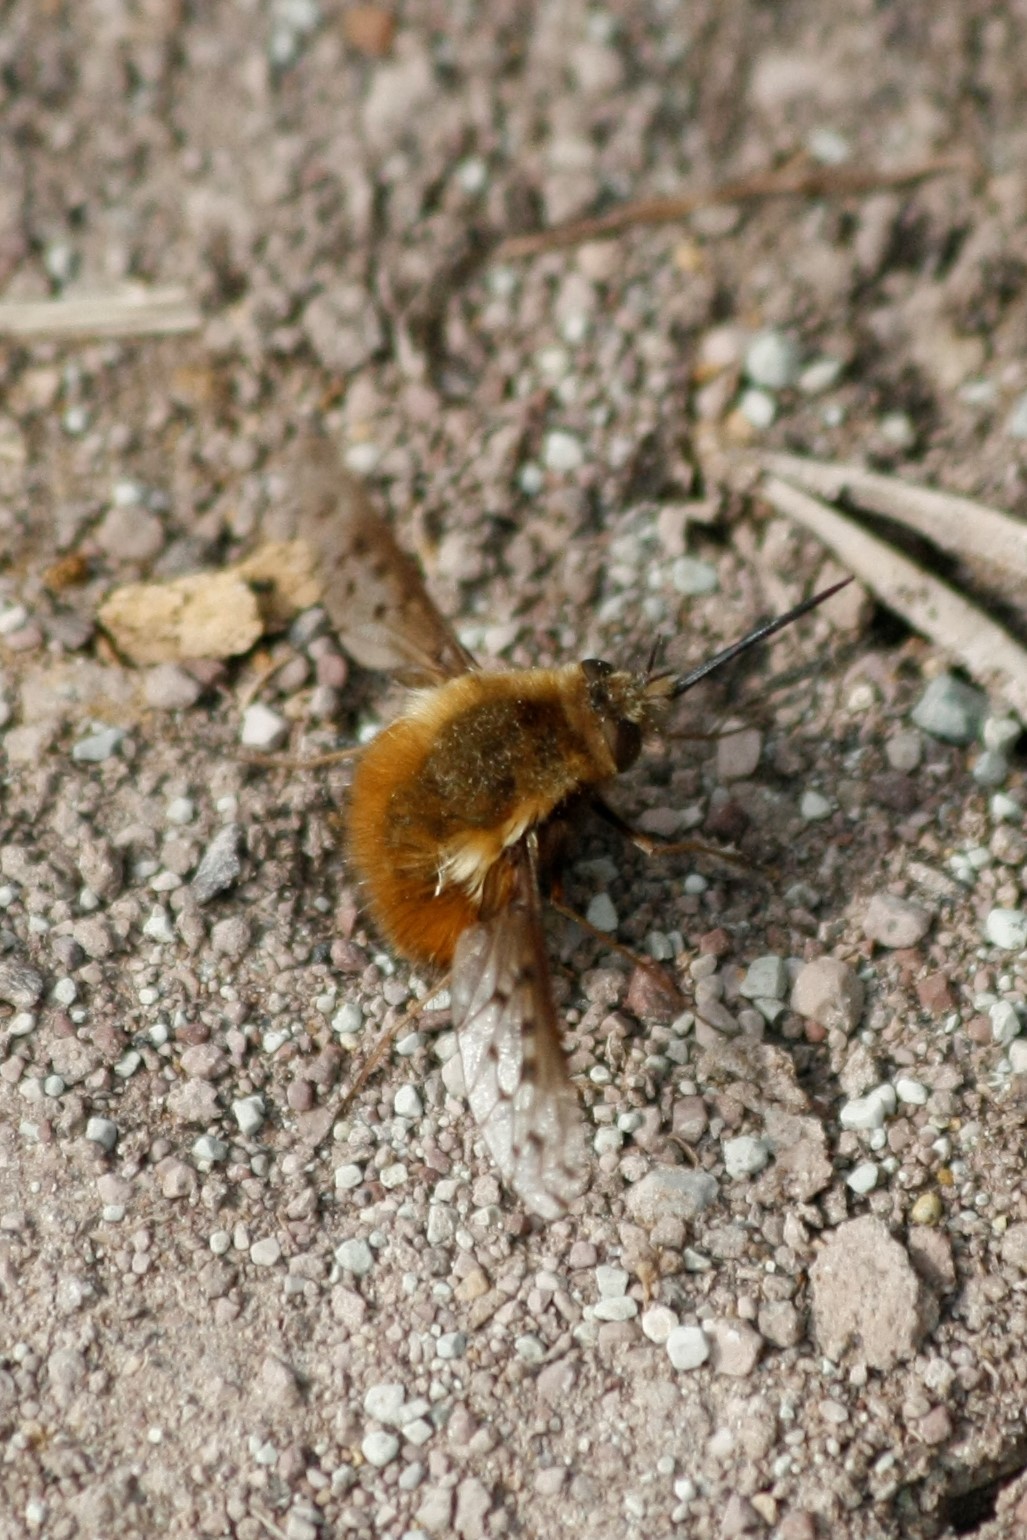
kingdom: Animalia
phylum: Arthropoda
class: Insecta
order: Diptera
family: Bombyliidae
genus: Bombylius
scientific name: Bombylius discolor
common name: Dotted bee-fly
